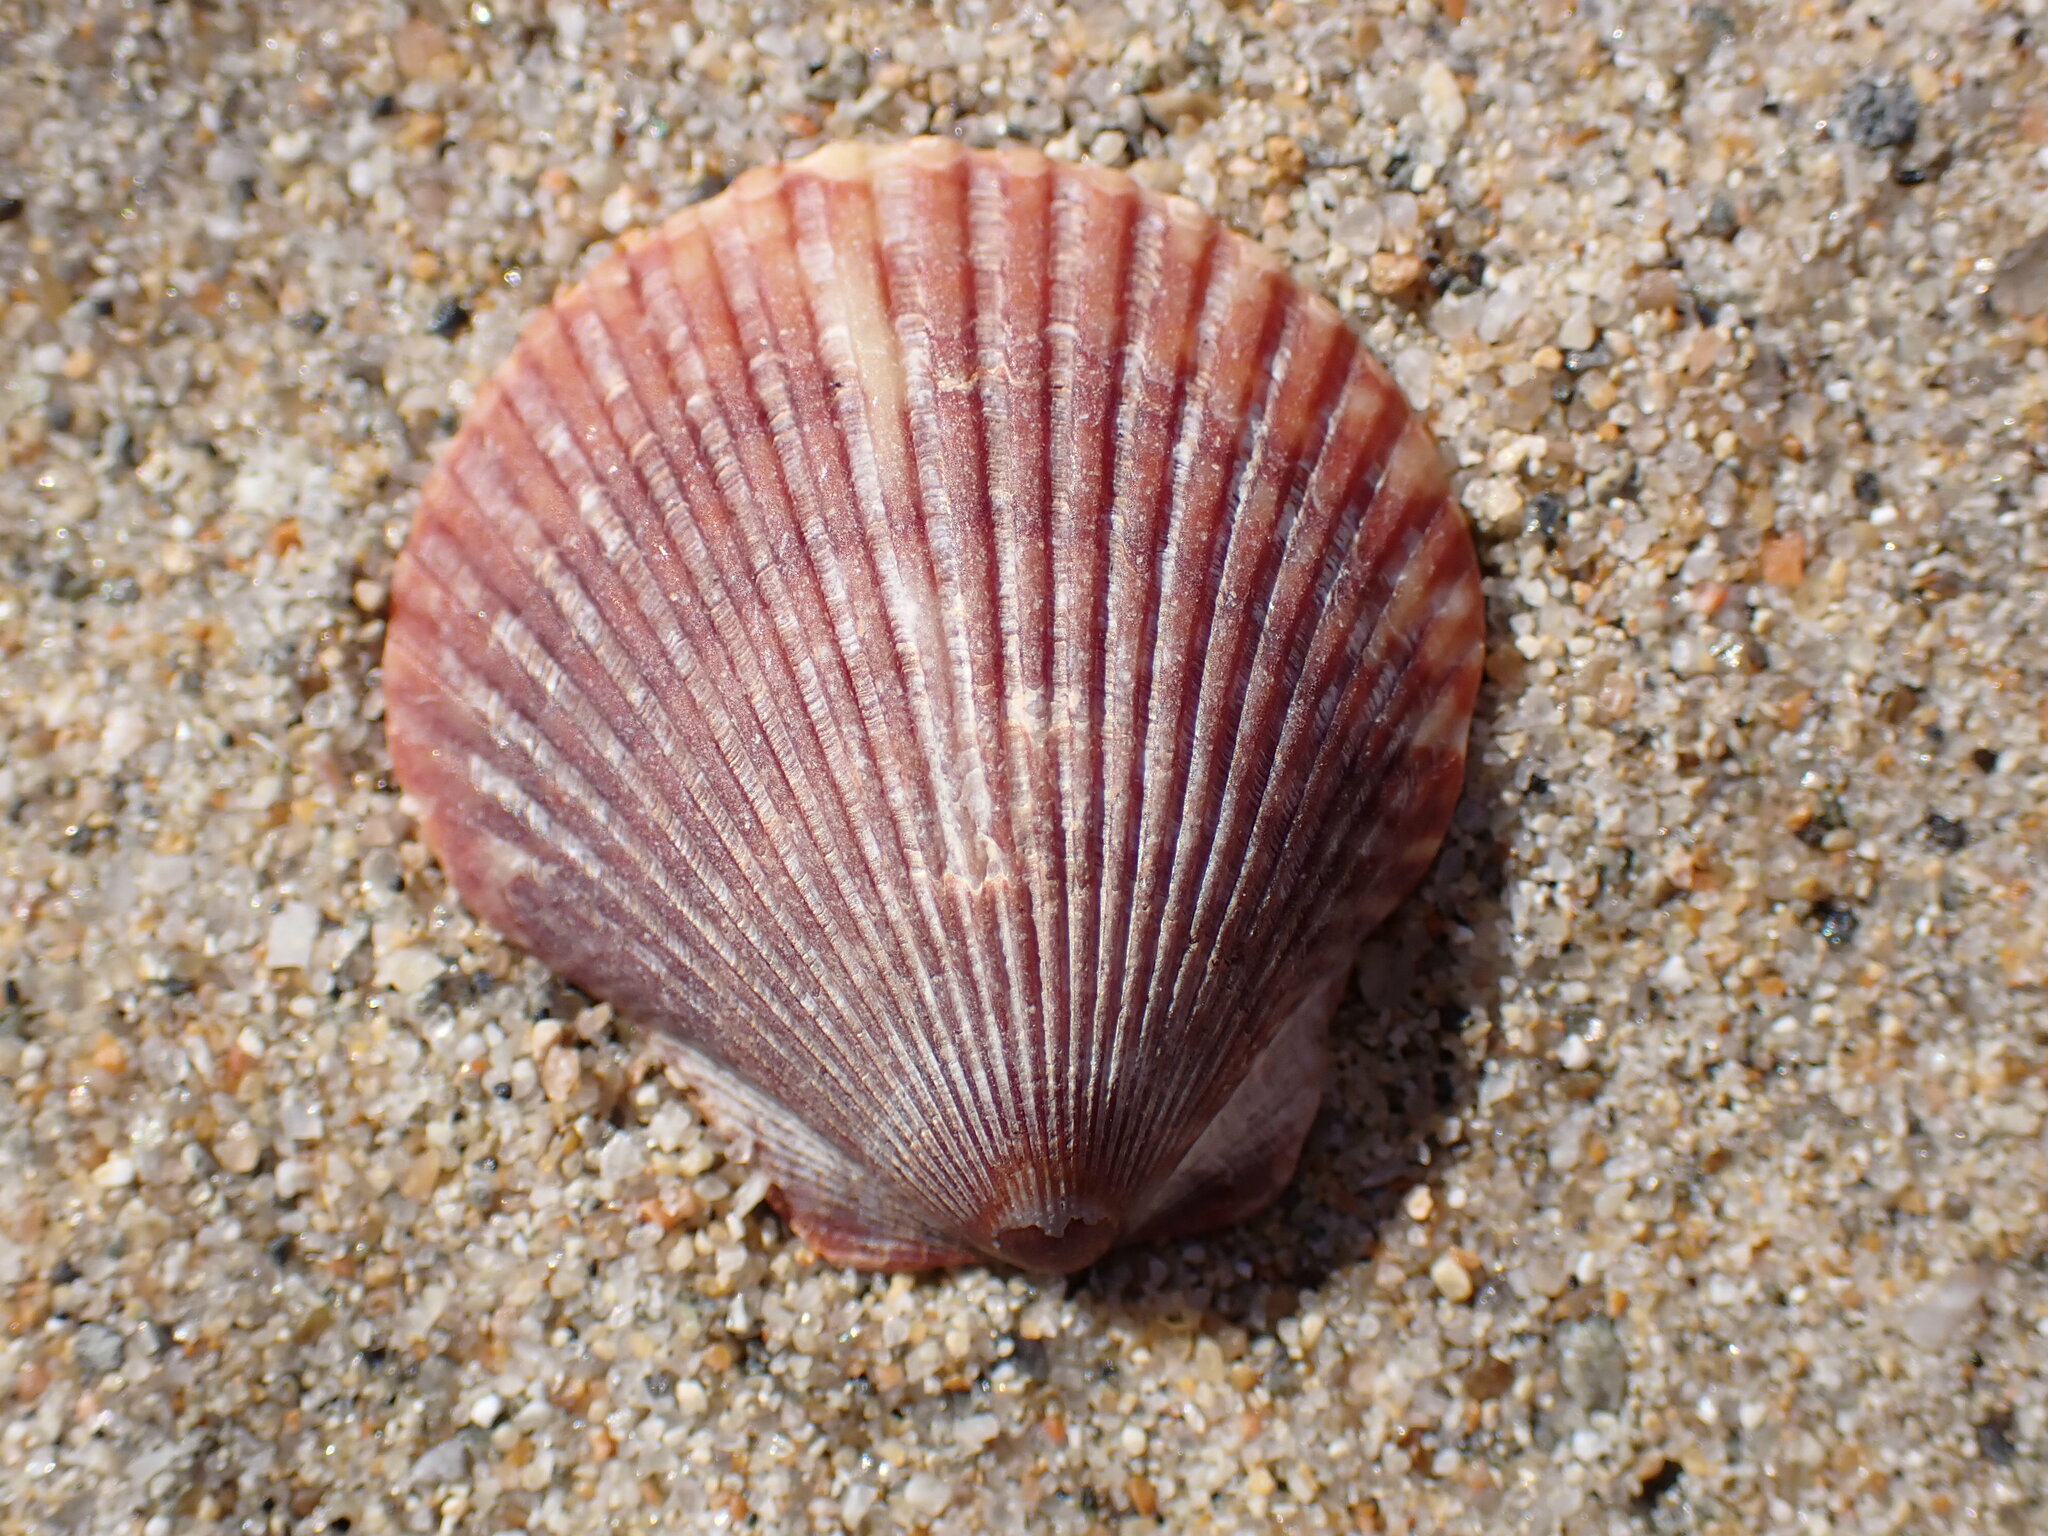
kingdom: Animalia
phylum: Mollusca
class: Bivalvia
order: Pectinida
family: Pectinidae
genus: Argopecten
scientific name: Argopecten ventricosus
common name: Catarina scallop
